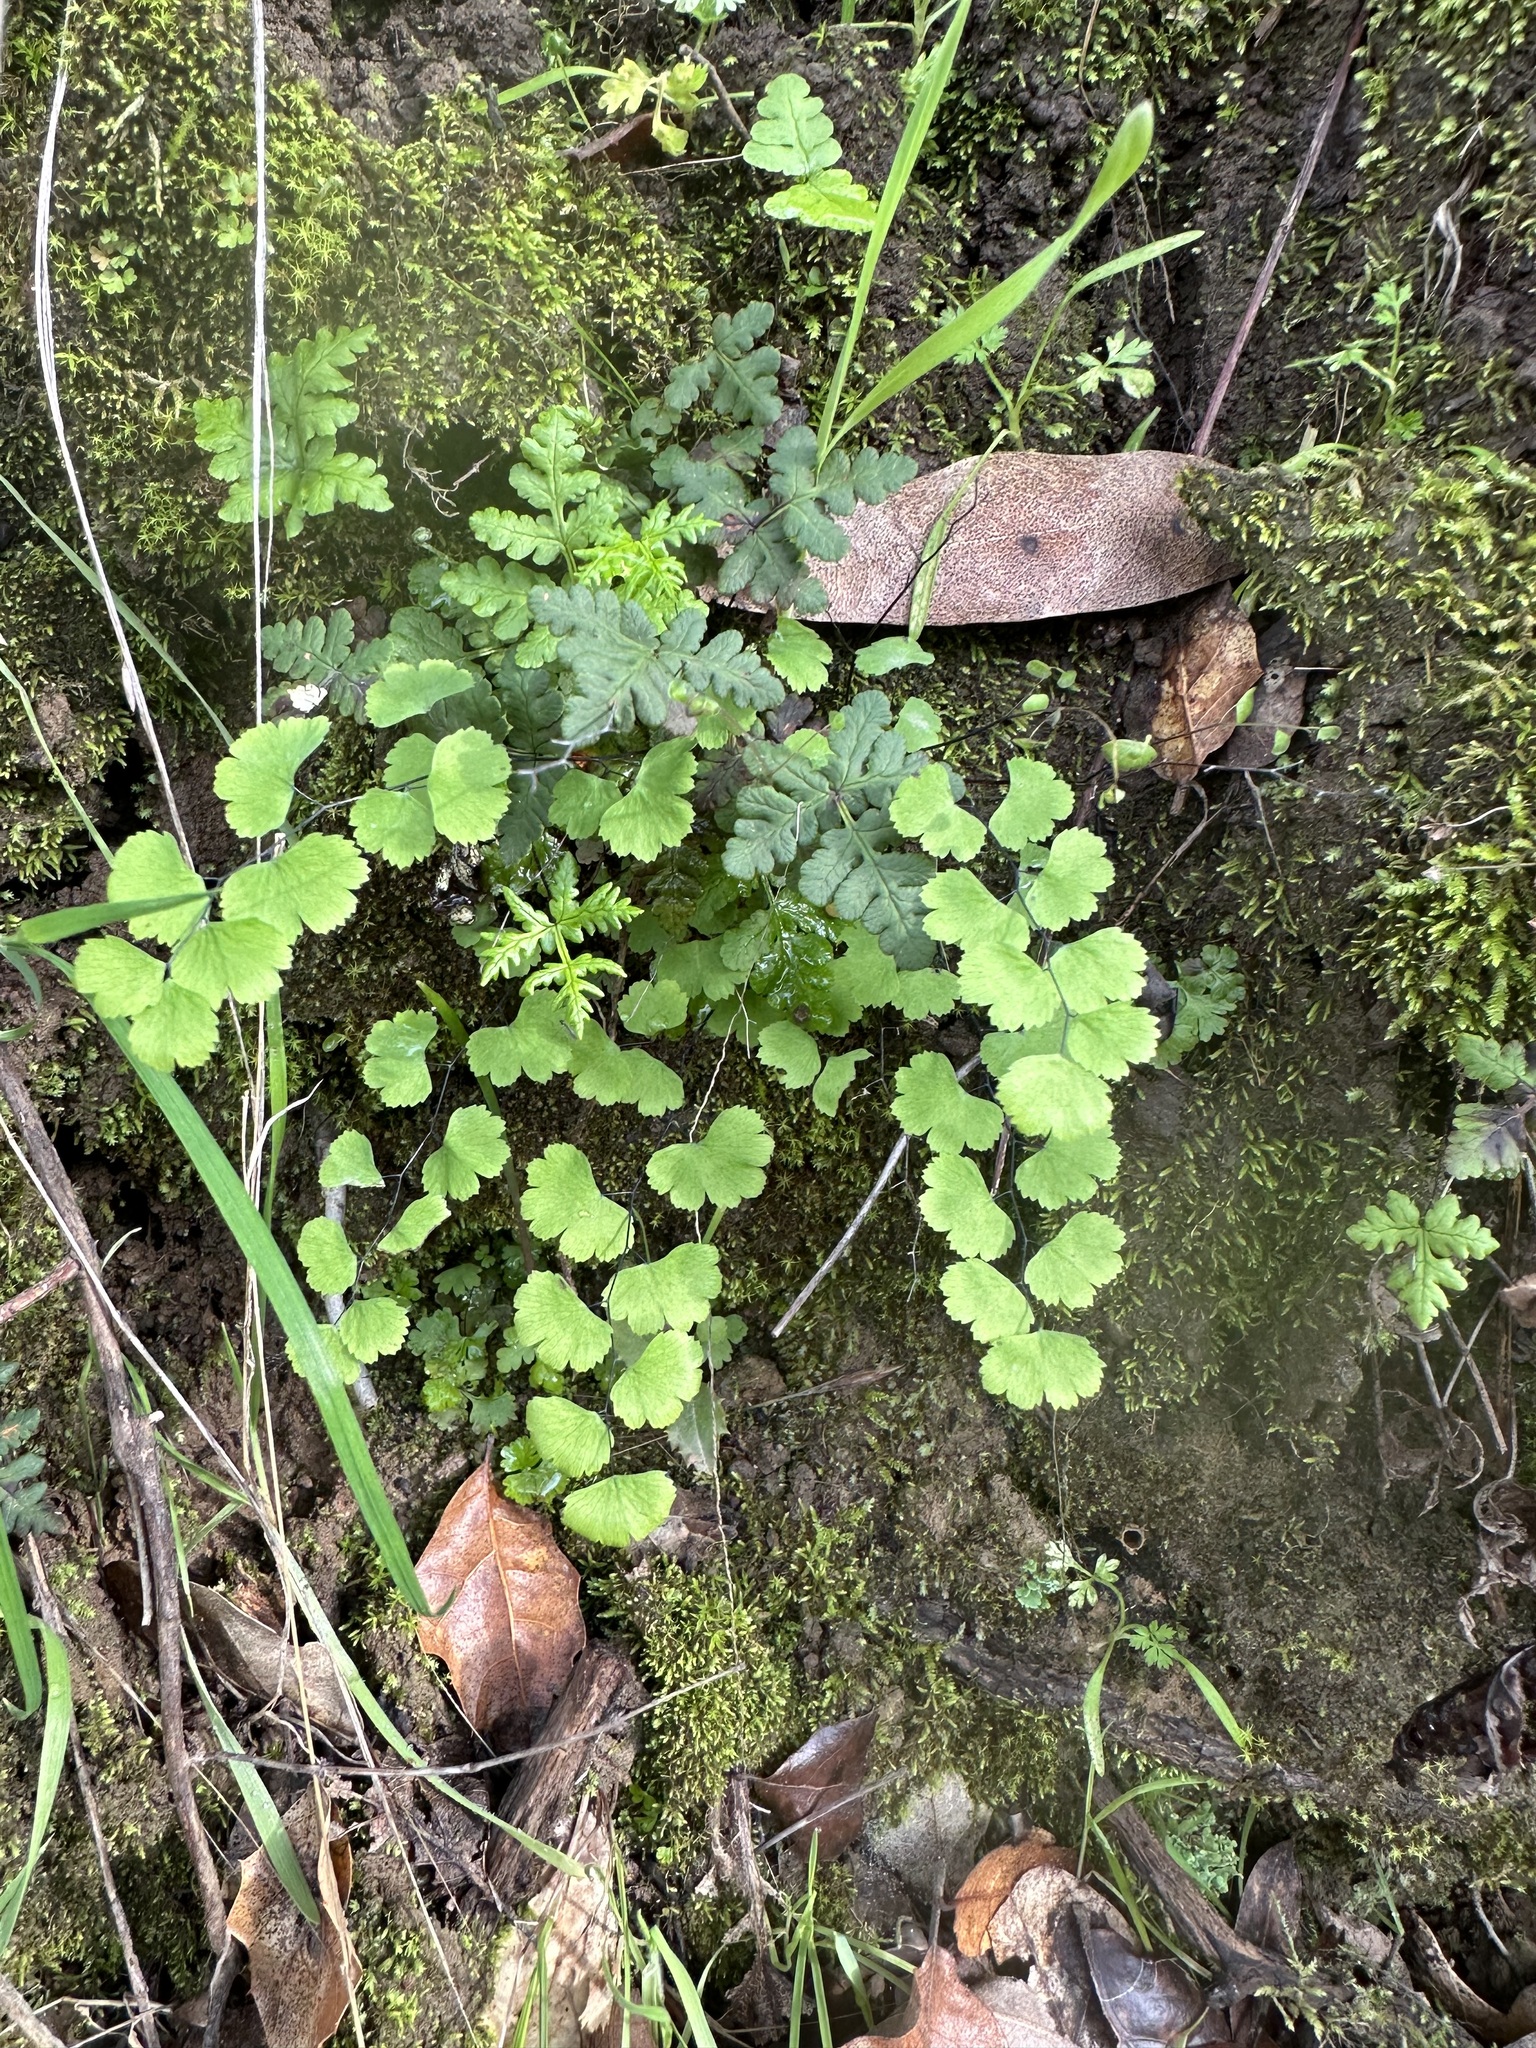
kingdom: Plantae
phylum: Tracheophyta
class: Polypodiopsida
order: Polypodiales
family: Pteridaceae
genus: Adiantum
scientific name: Adiantum jordanii
